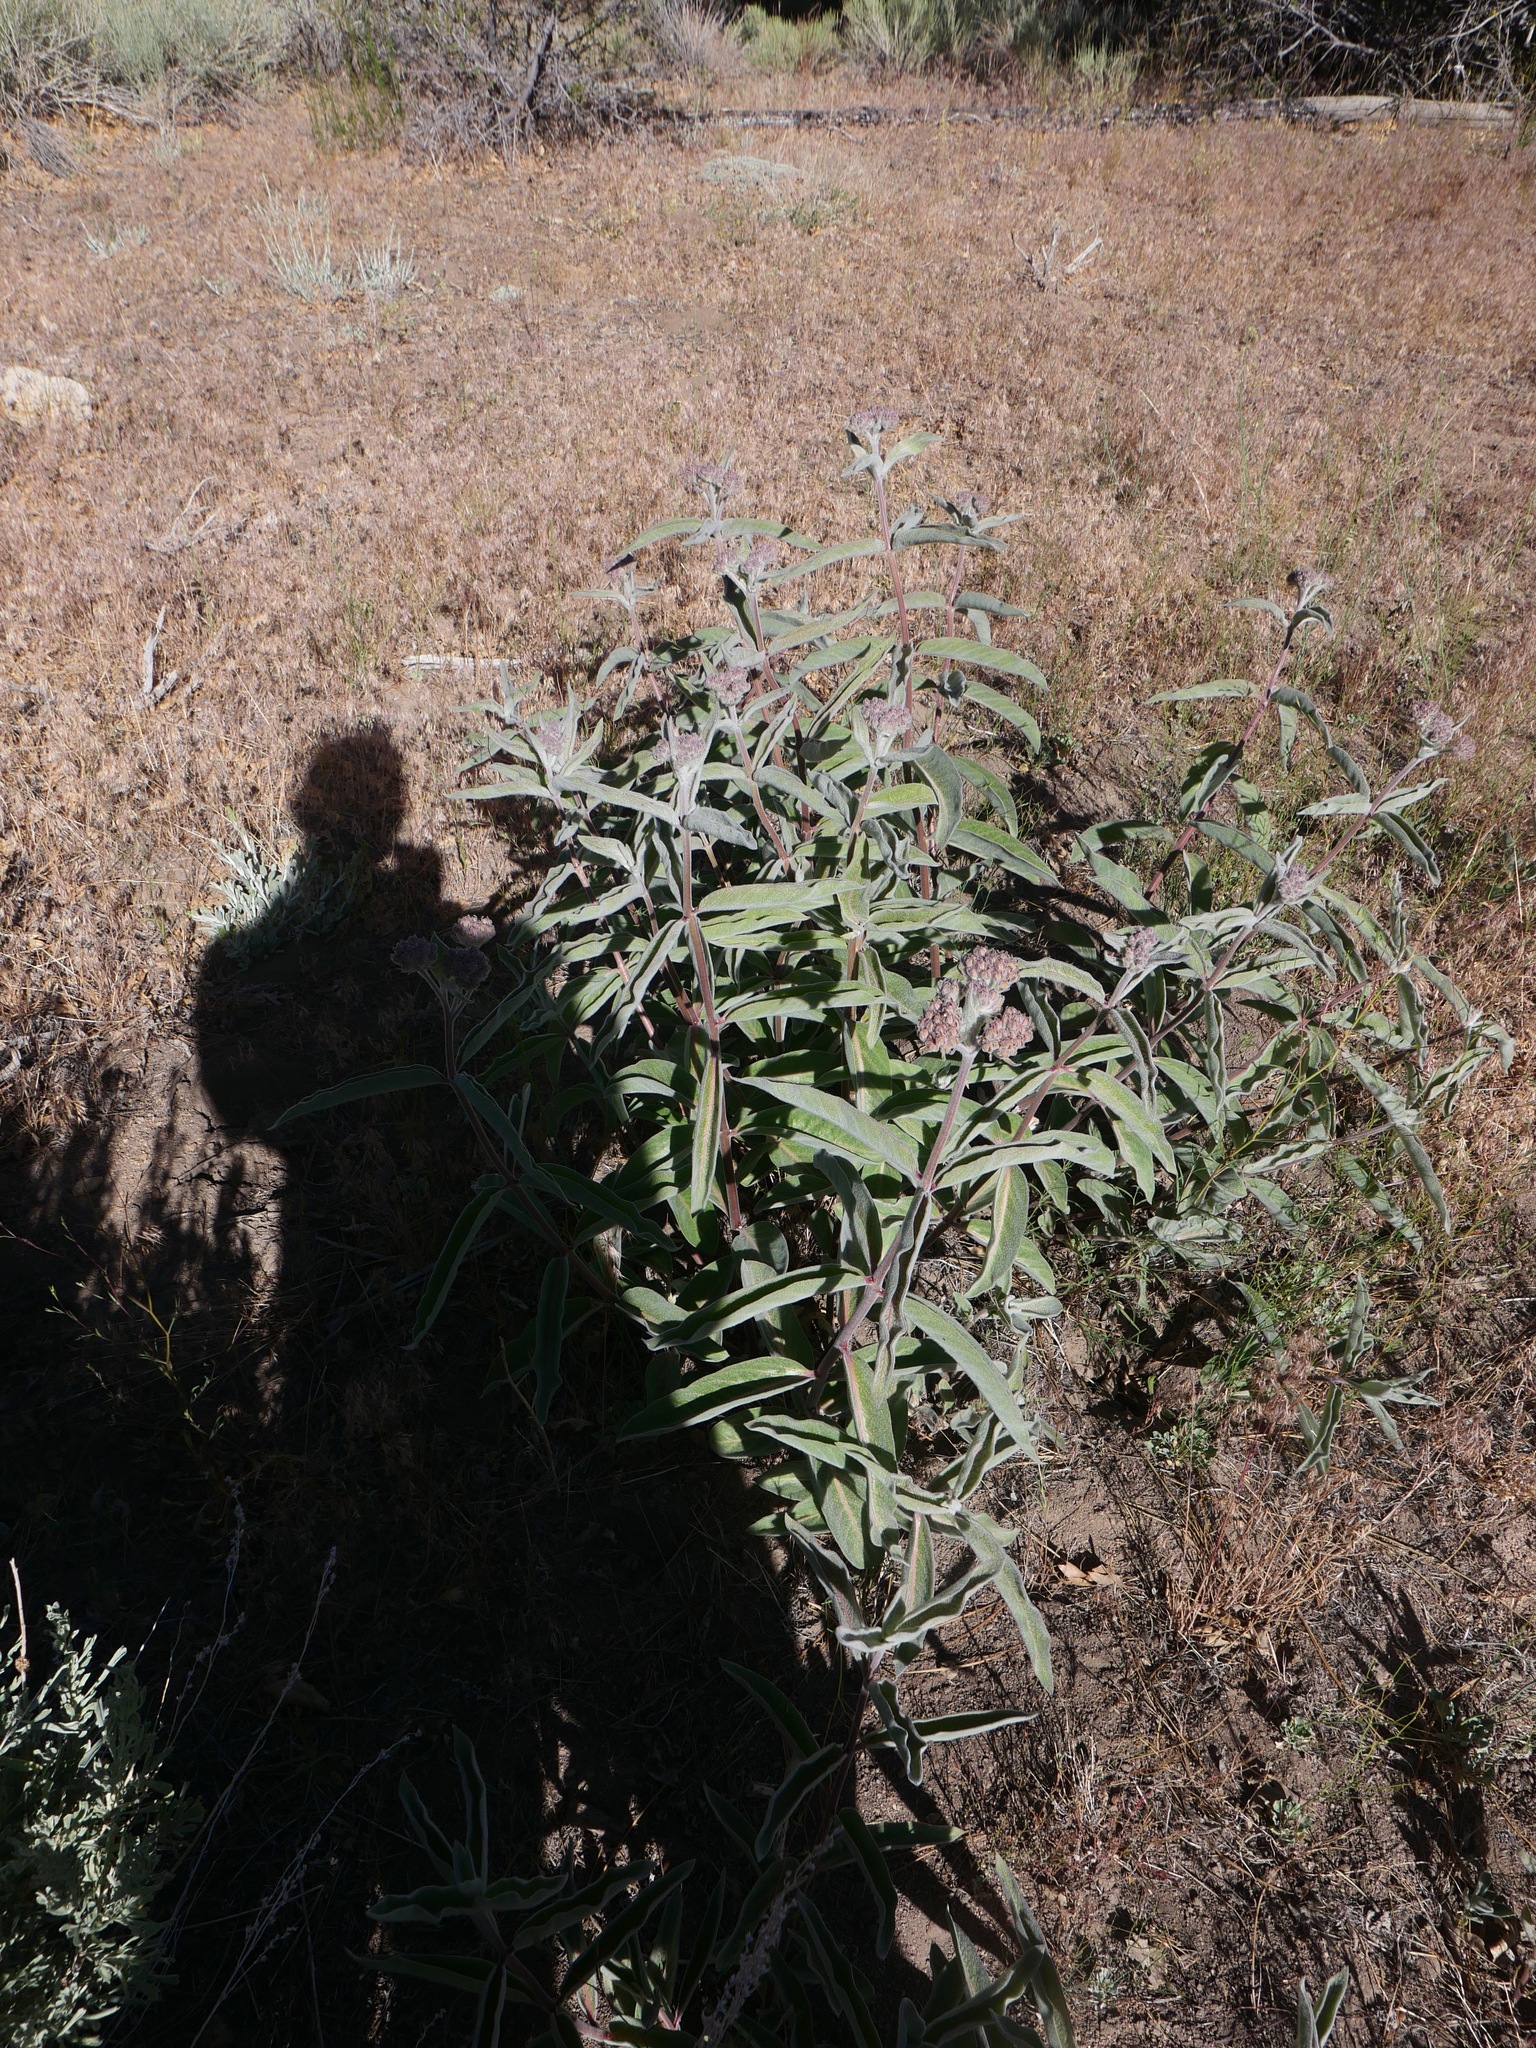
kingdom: Plantae
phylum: Tracheophyta
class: Magnoliopsida
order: Gentianales
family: Apocynaceae
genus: Asclepias
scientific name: Asclepias californica
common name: California milkweed
